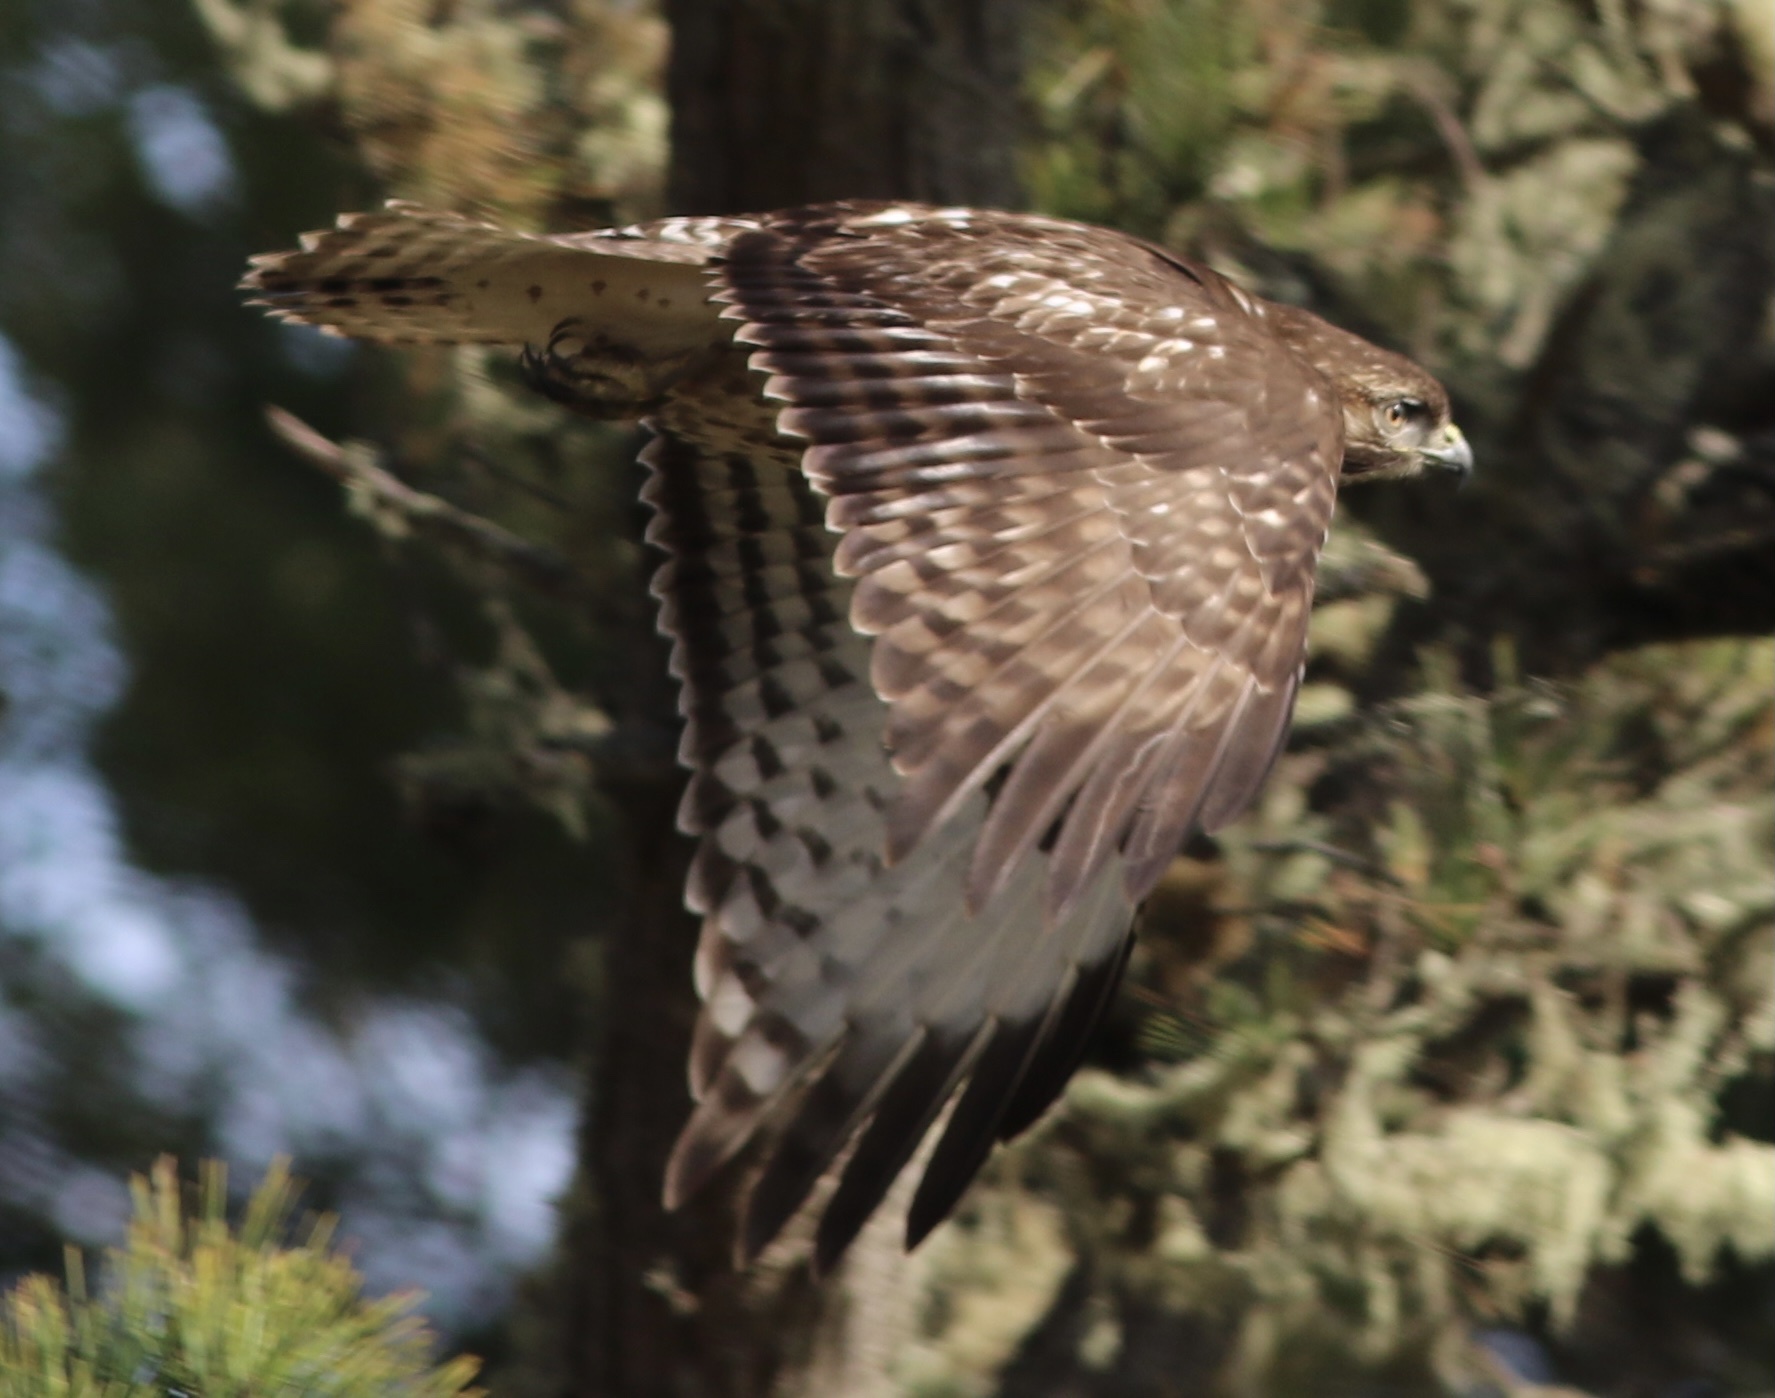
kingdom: Animalia
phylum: Chordata
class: Aves
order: Accipitriformes
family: Accipitridae
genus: Buteo
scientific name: Buteo jamaicensis
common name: Red-tailed hawk
